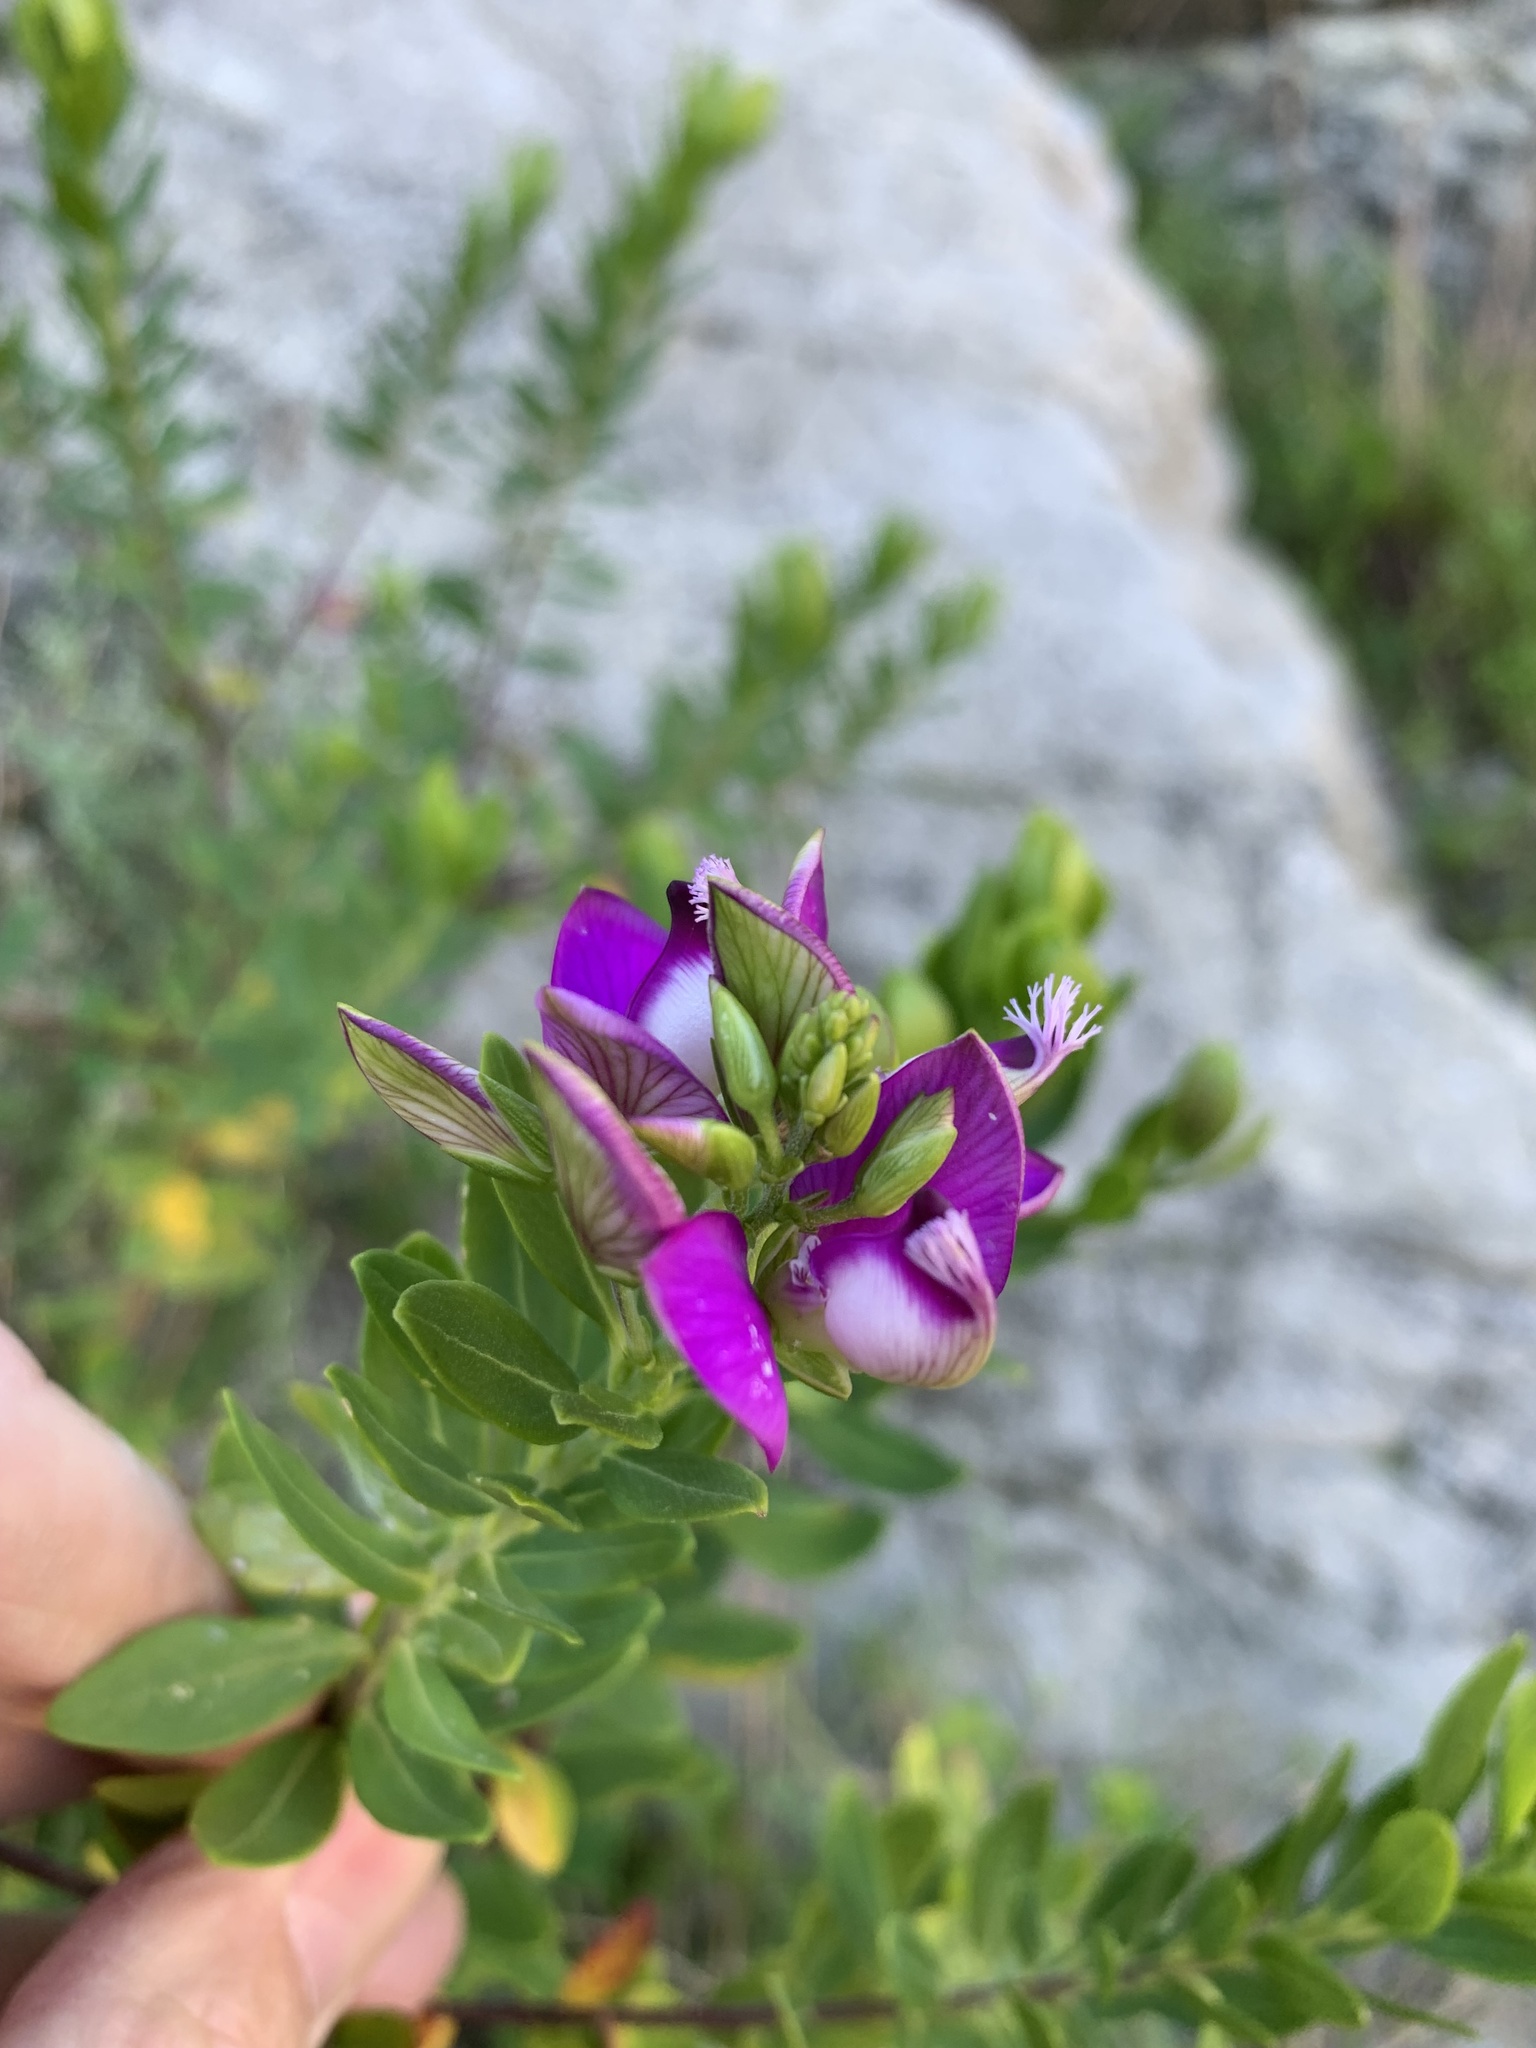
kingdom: Plantae
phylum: Tracheophyta
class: Magnoliopsida
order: Fabales
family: Polygalaceae
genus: Polygala
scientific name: Polygala myrtifolia
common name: Myrtle-leaf milkwort
